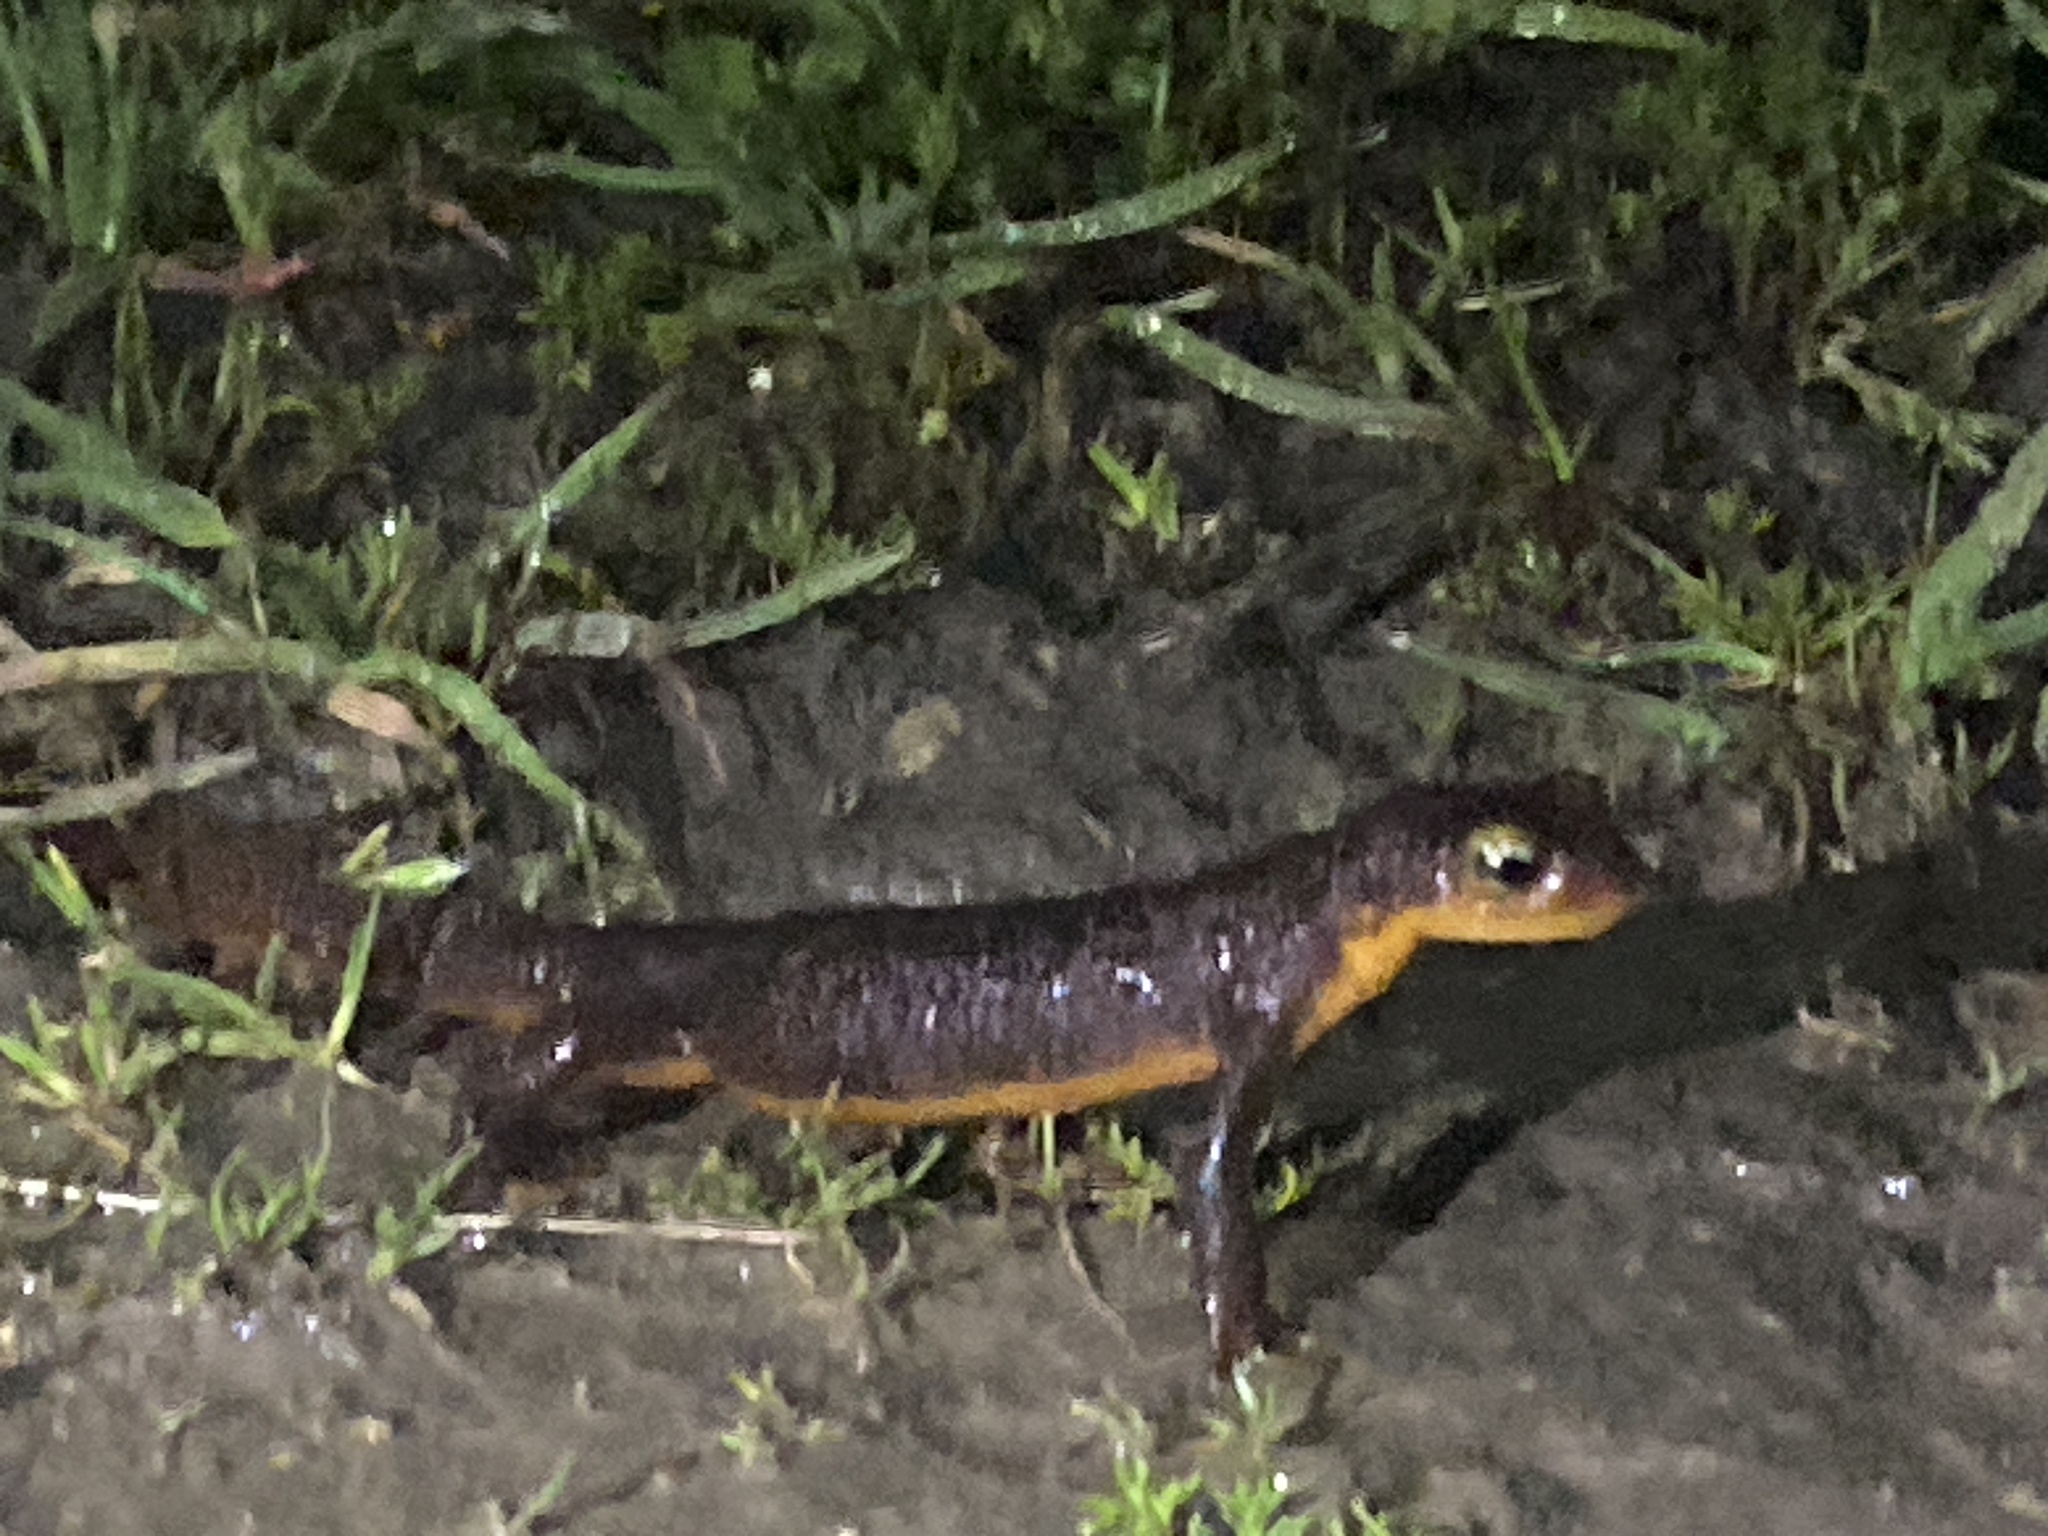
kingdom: Animalia
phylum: Chordata
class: Amphibia
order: Caudata
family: Salamandridae
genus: Taricha
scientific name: Taricha torosa
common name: California newt
